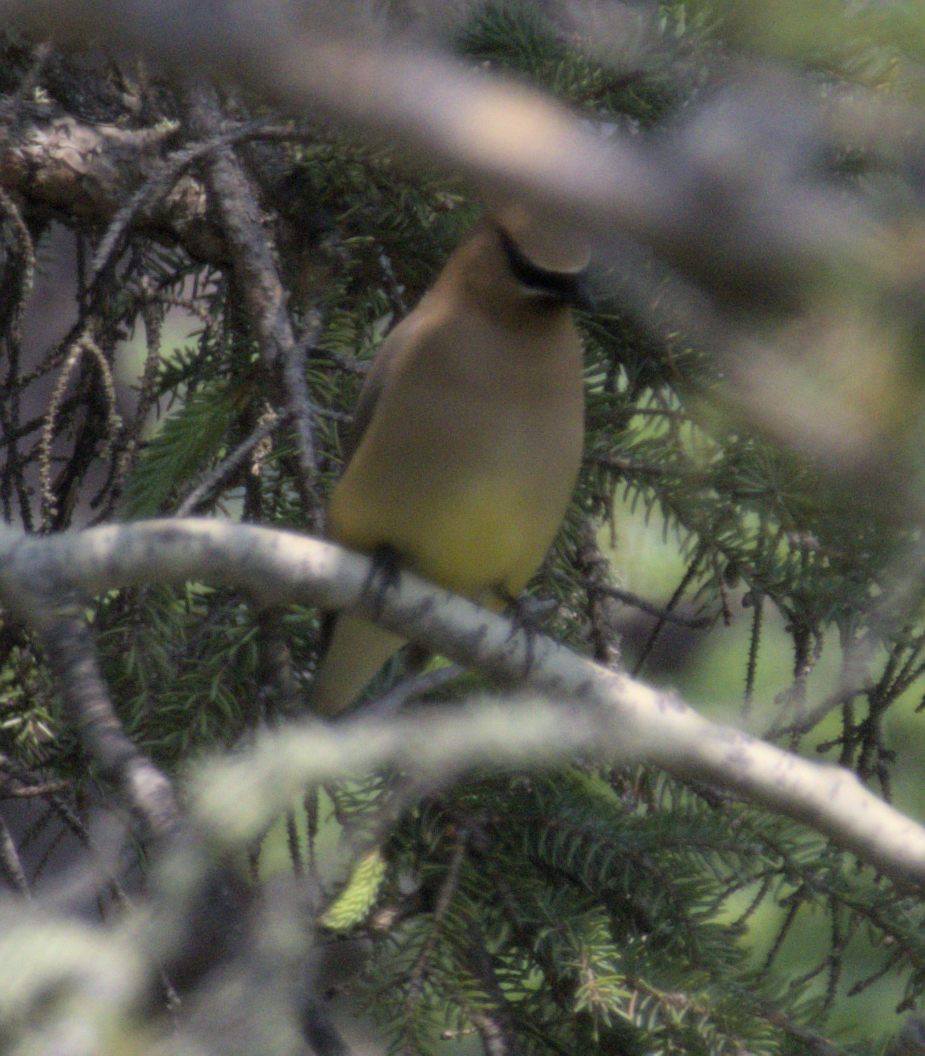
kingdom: Animalia
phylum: Chordata
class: Aves
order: Passeriformes
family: Bombycillidae
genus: Bombycilla
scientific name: Bombycilla cedrorum
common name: Cedar waxwing
